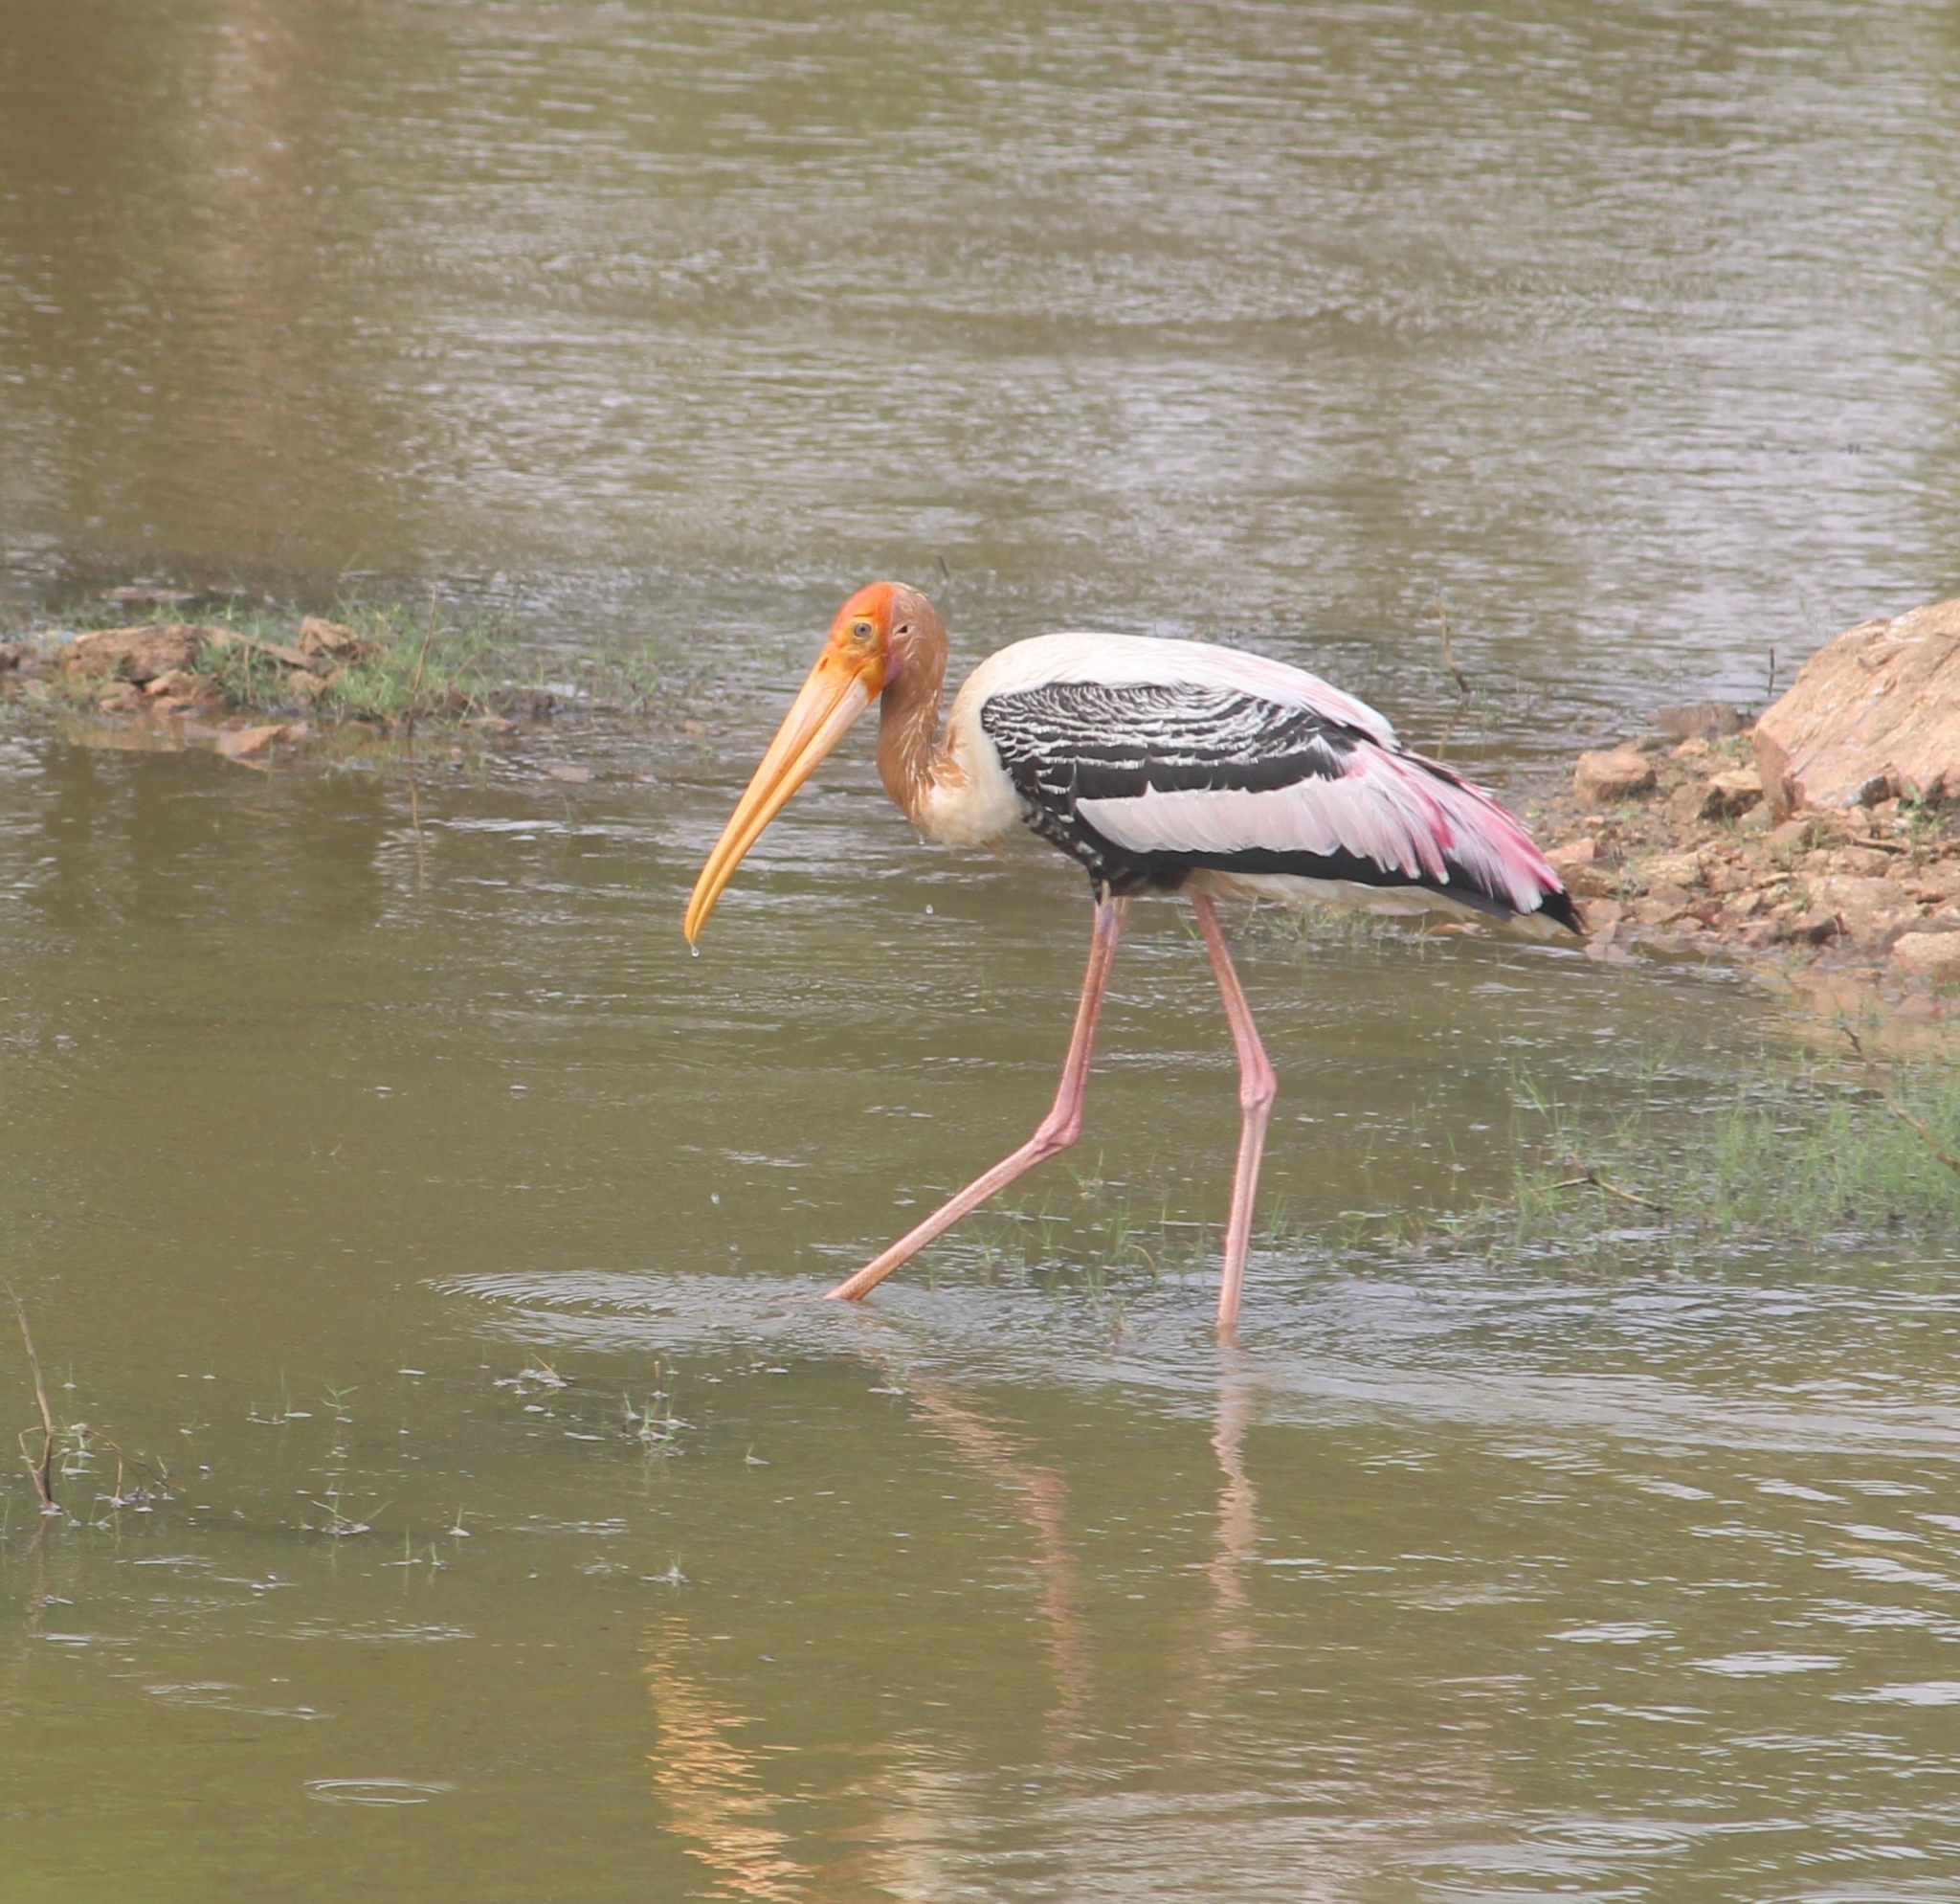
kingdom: Animalia
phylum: Chordata
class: Aves
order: Ciconiiformes
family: Ciconiidae
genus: Mycteria
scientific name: Mycteria leucocephala
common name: Painted stork
